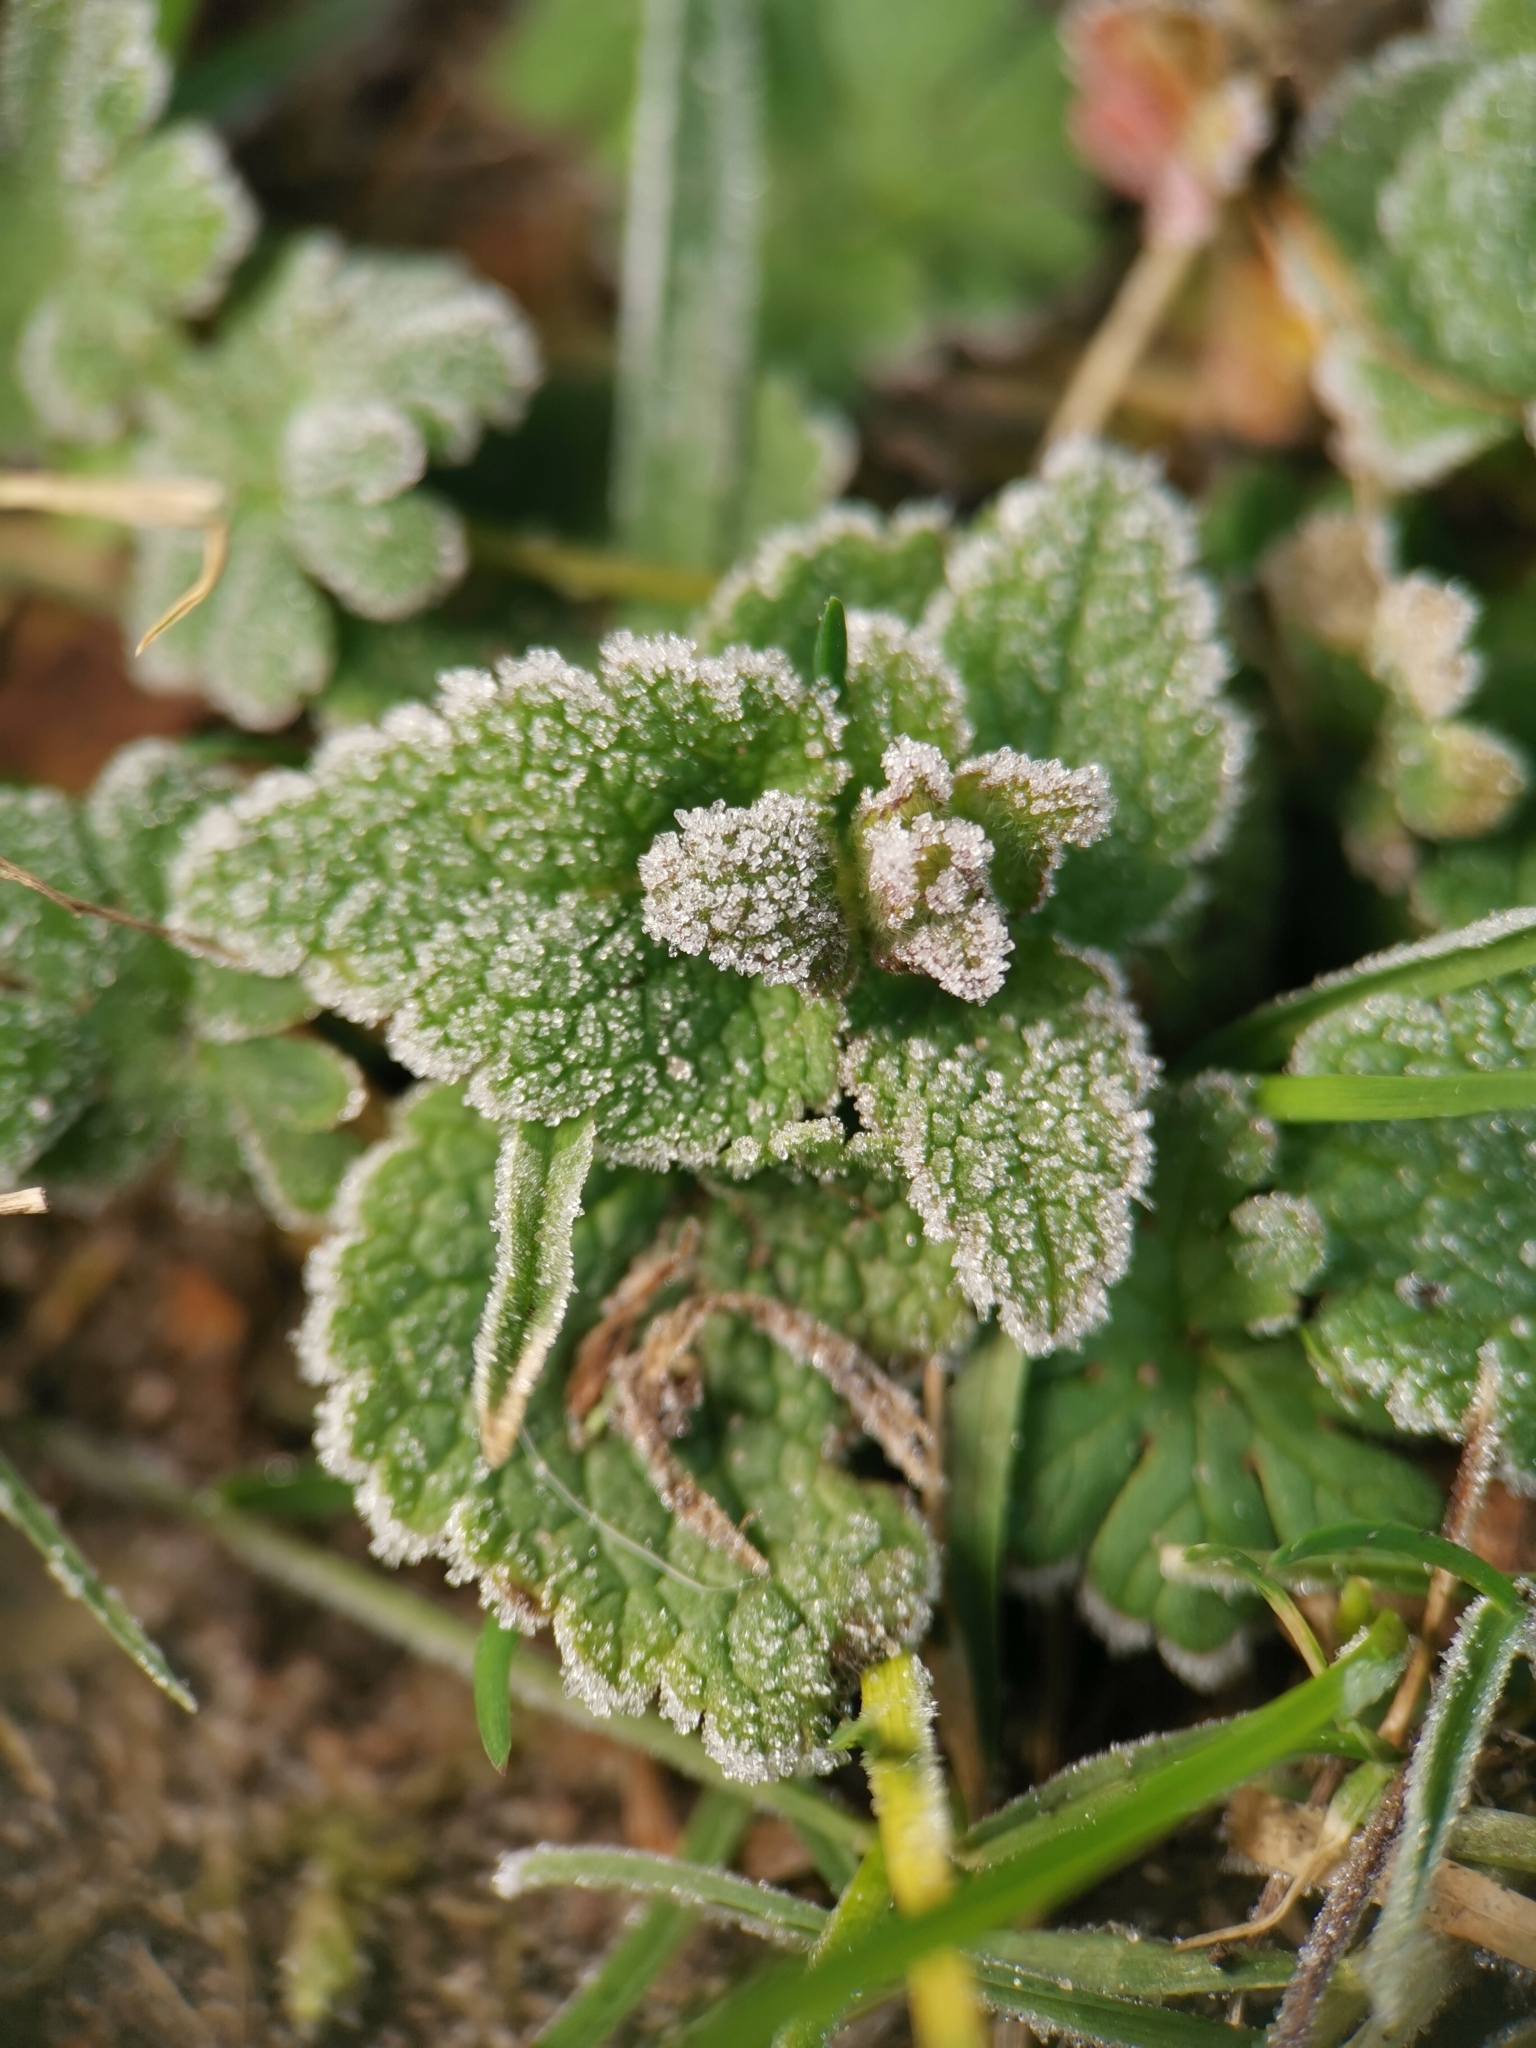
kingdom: Plantae
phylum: Tracheophyta
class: Magnoliopsida
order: Lamiales
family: Lamiaceae
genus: Lamium
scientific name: Lamium purpureum
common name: Red dead-nettle
